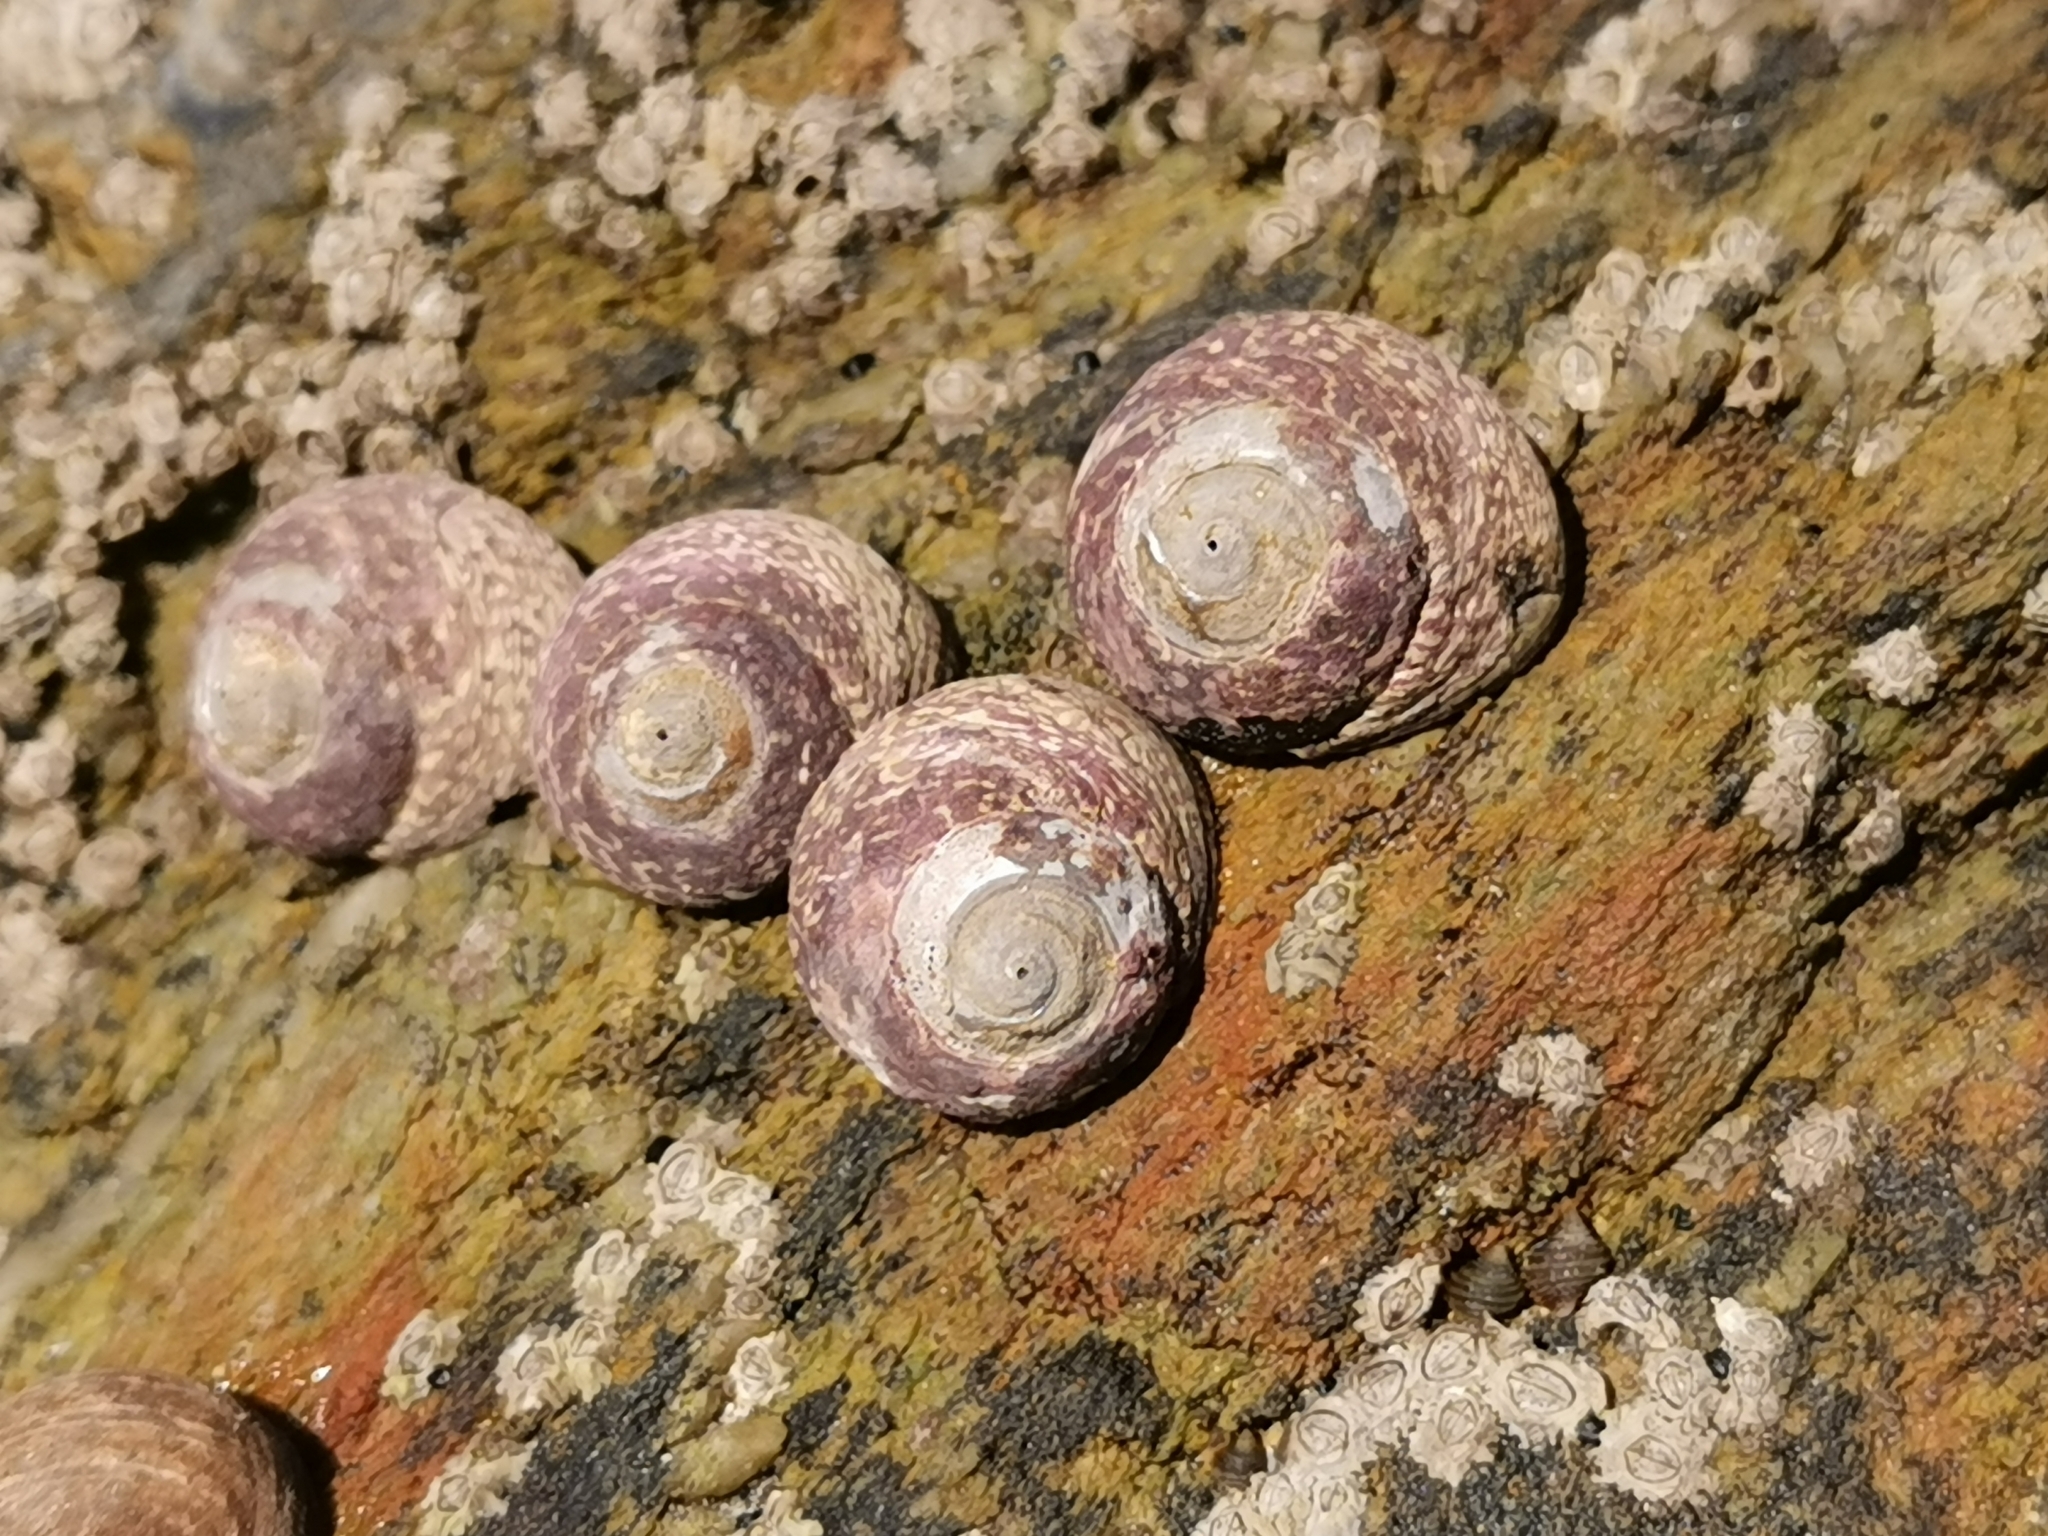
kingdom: Animalia
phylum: Mollusca
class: Gastropoda
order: Trochida
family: Trochidae
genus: Phorcus
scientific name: Phorcus lineatus
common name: Toothed top shell
